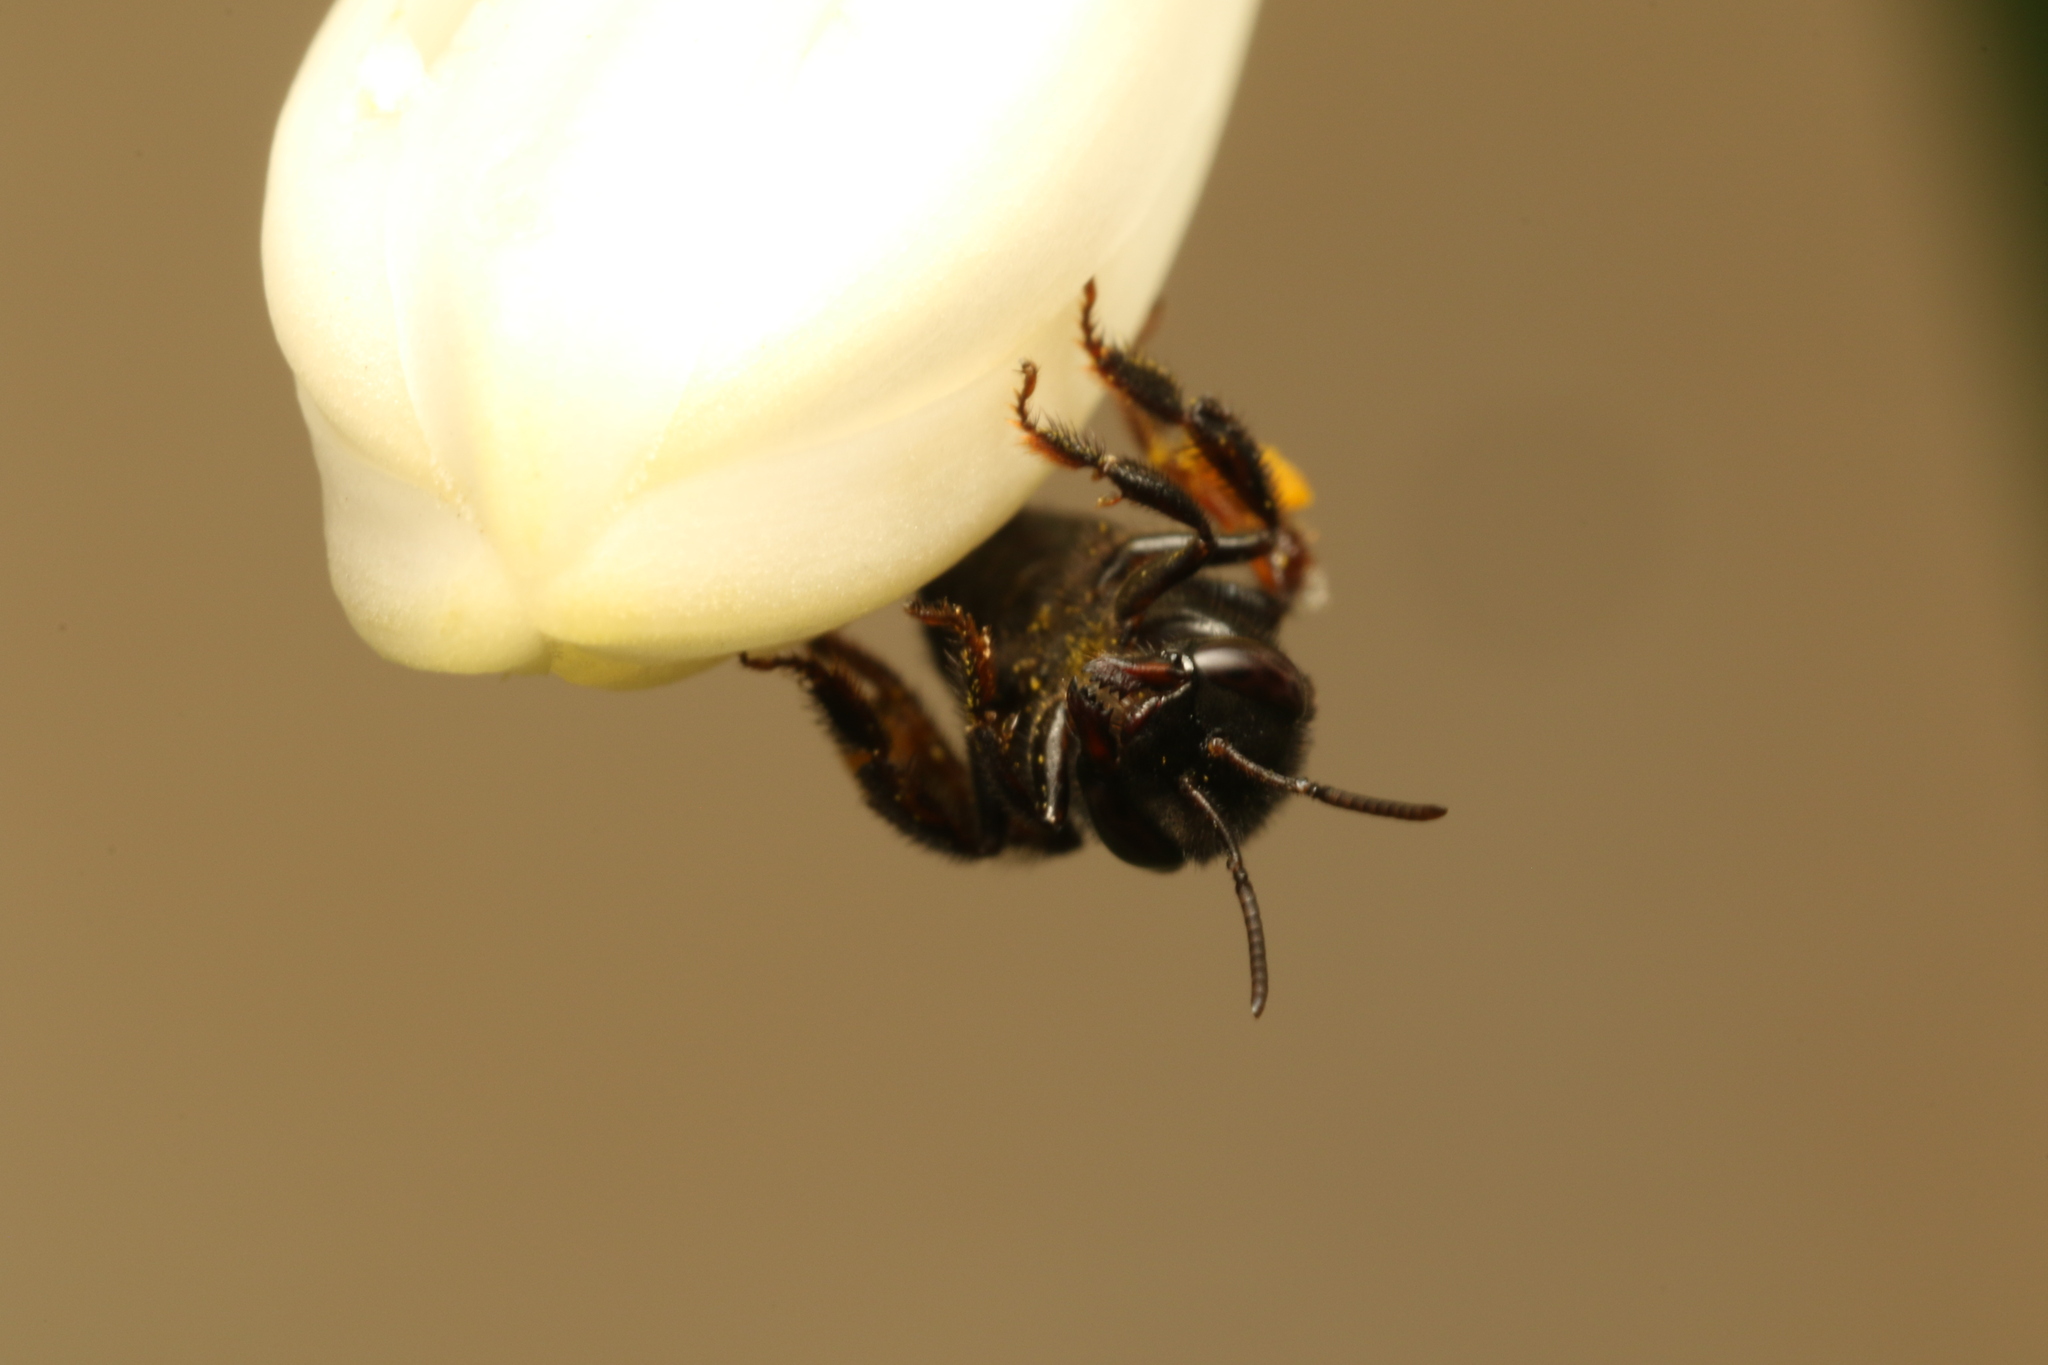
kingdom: Animalia
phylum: Arthropoda
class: Insecta
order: Hymenoptera
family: Apidae
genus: Trigona
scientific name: Trigona spinipes
